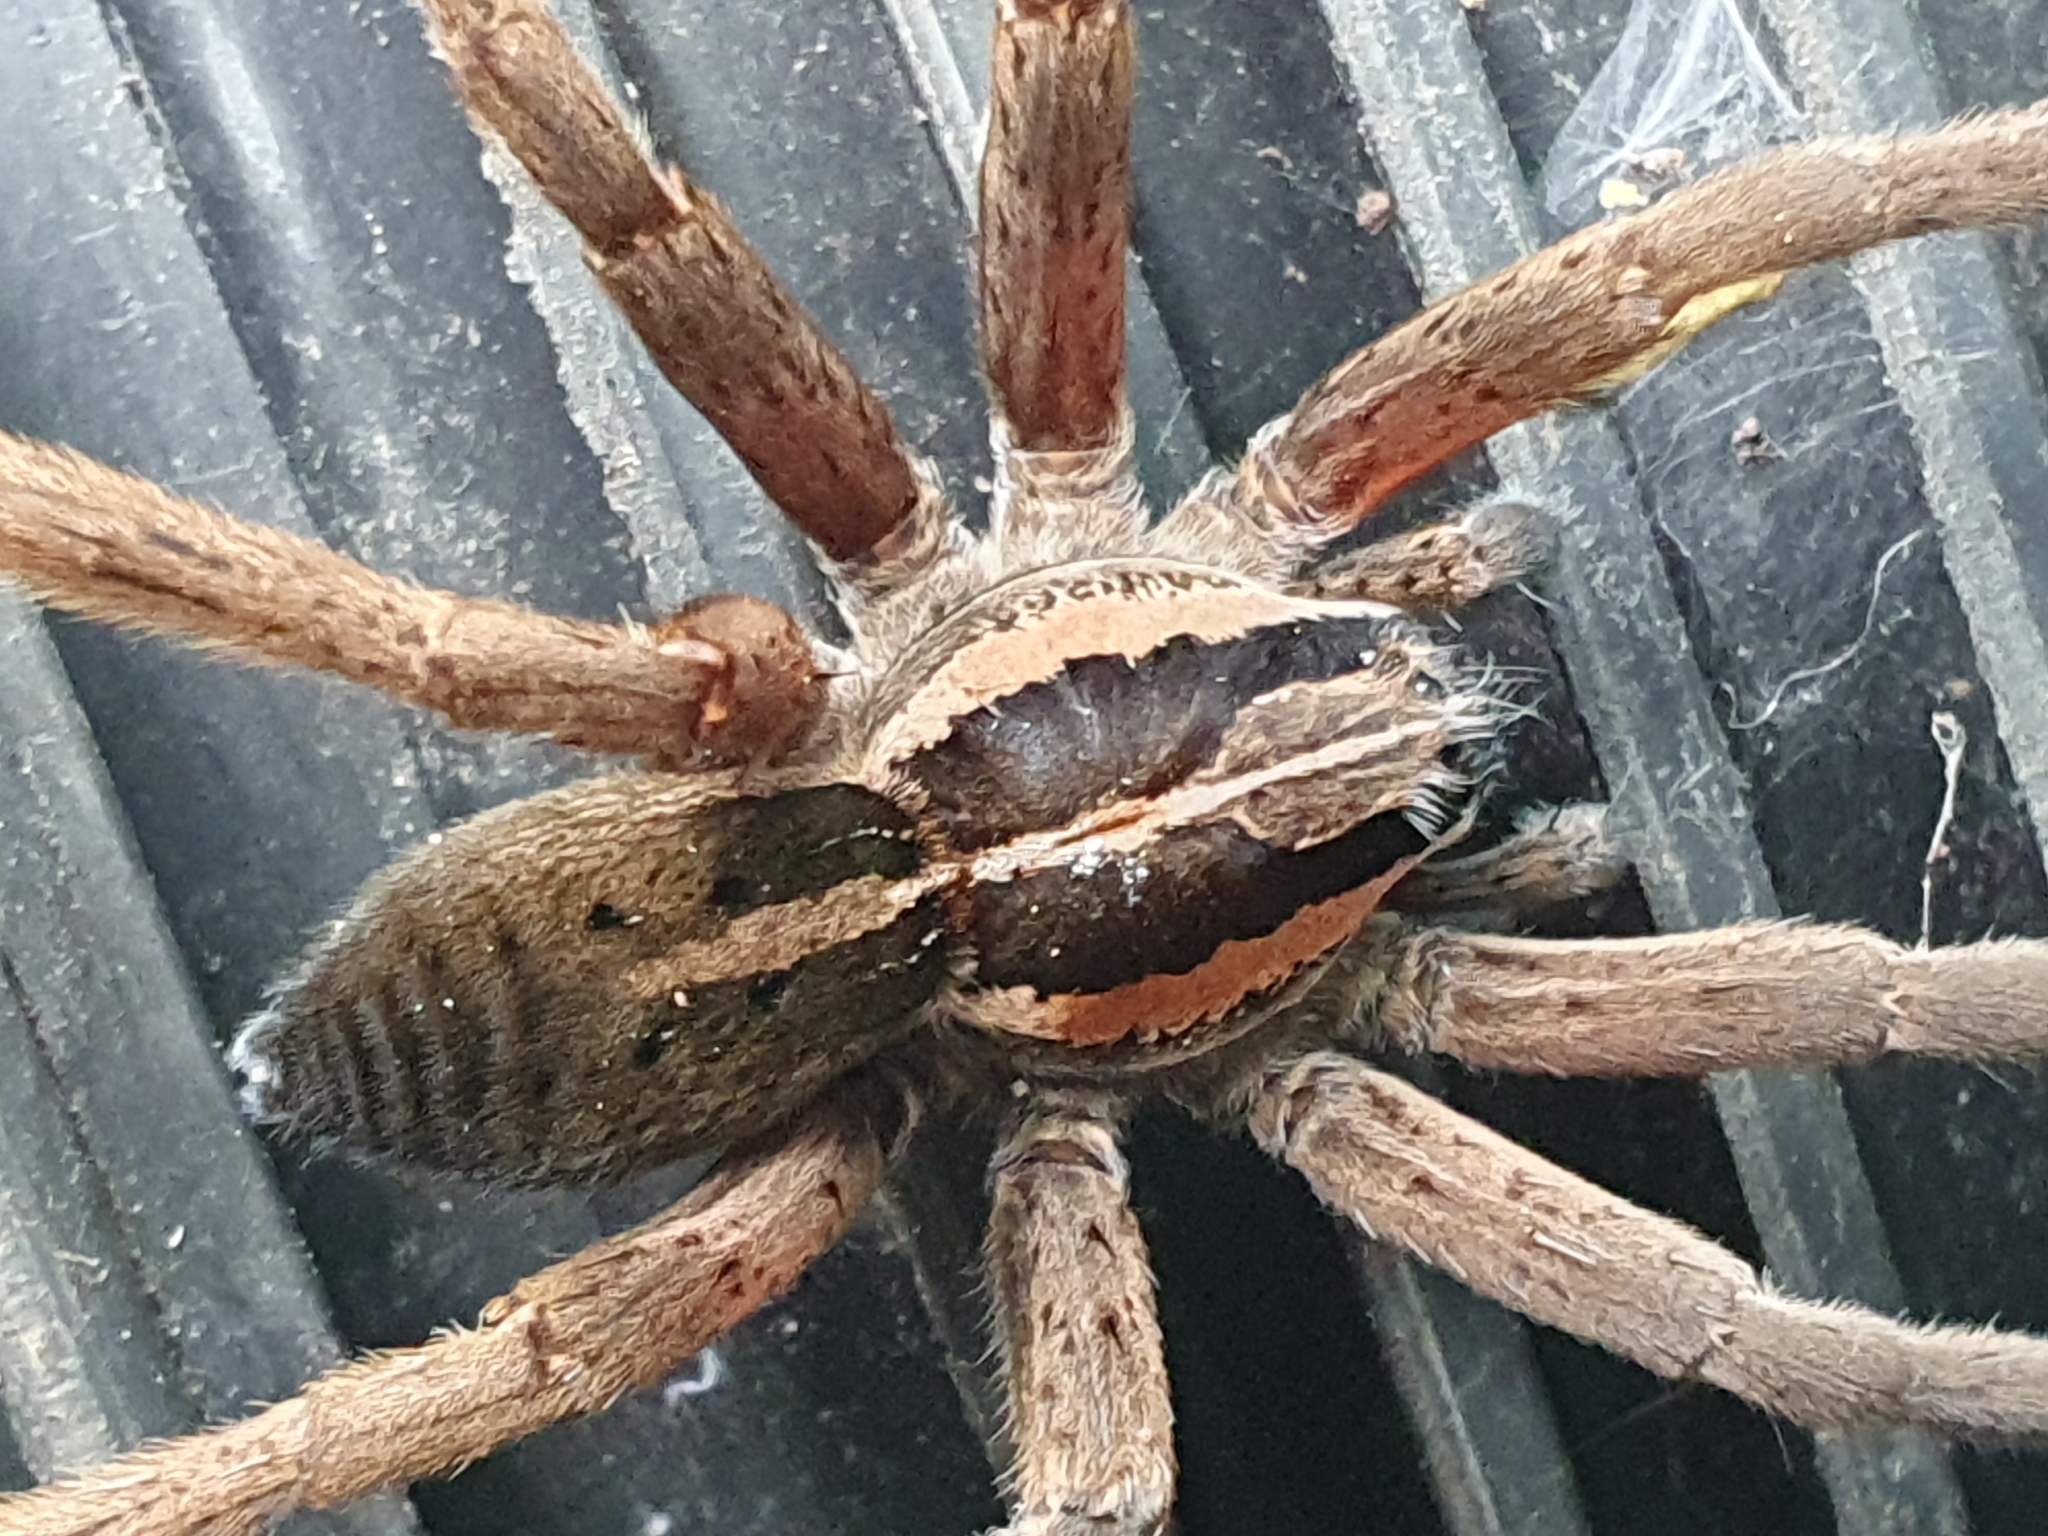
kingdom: Animalia
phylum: Arthropoda
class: Arachnida
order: Araneae
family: Pisauridae
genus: Dolomedes
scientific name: Dolomedes minor
